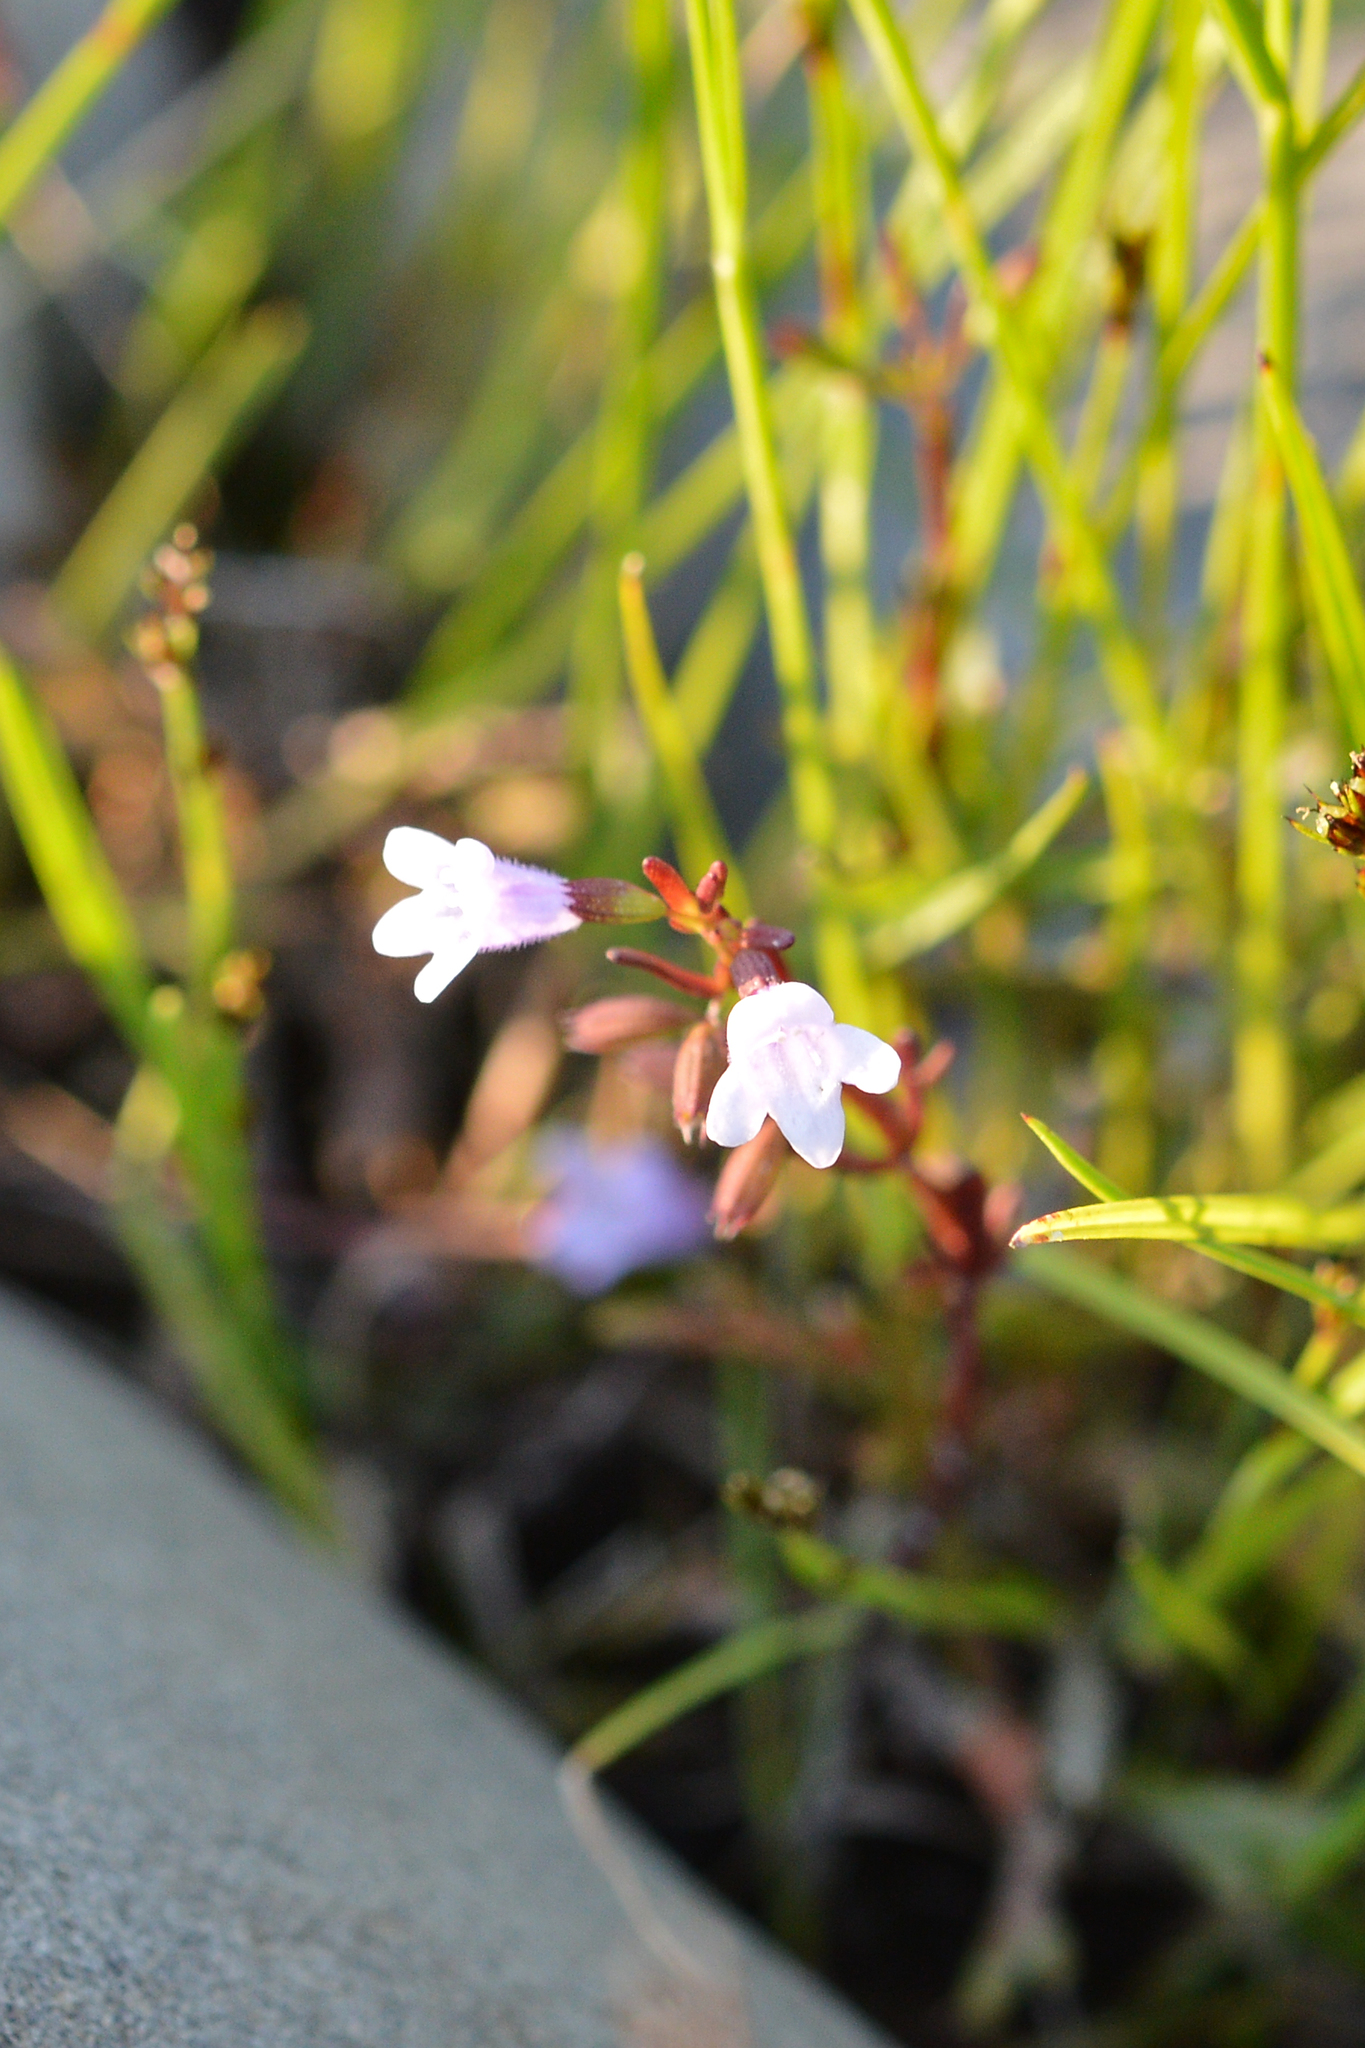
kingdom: Plantae
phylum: Tracheophyta
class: Magnoliopsida
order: Lamiales
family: Lamiaceae
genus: Clinopodium
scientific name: Clinopodium arkansanum
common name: Limestone calamint
